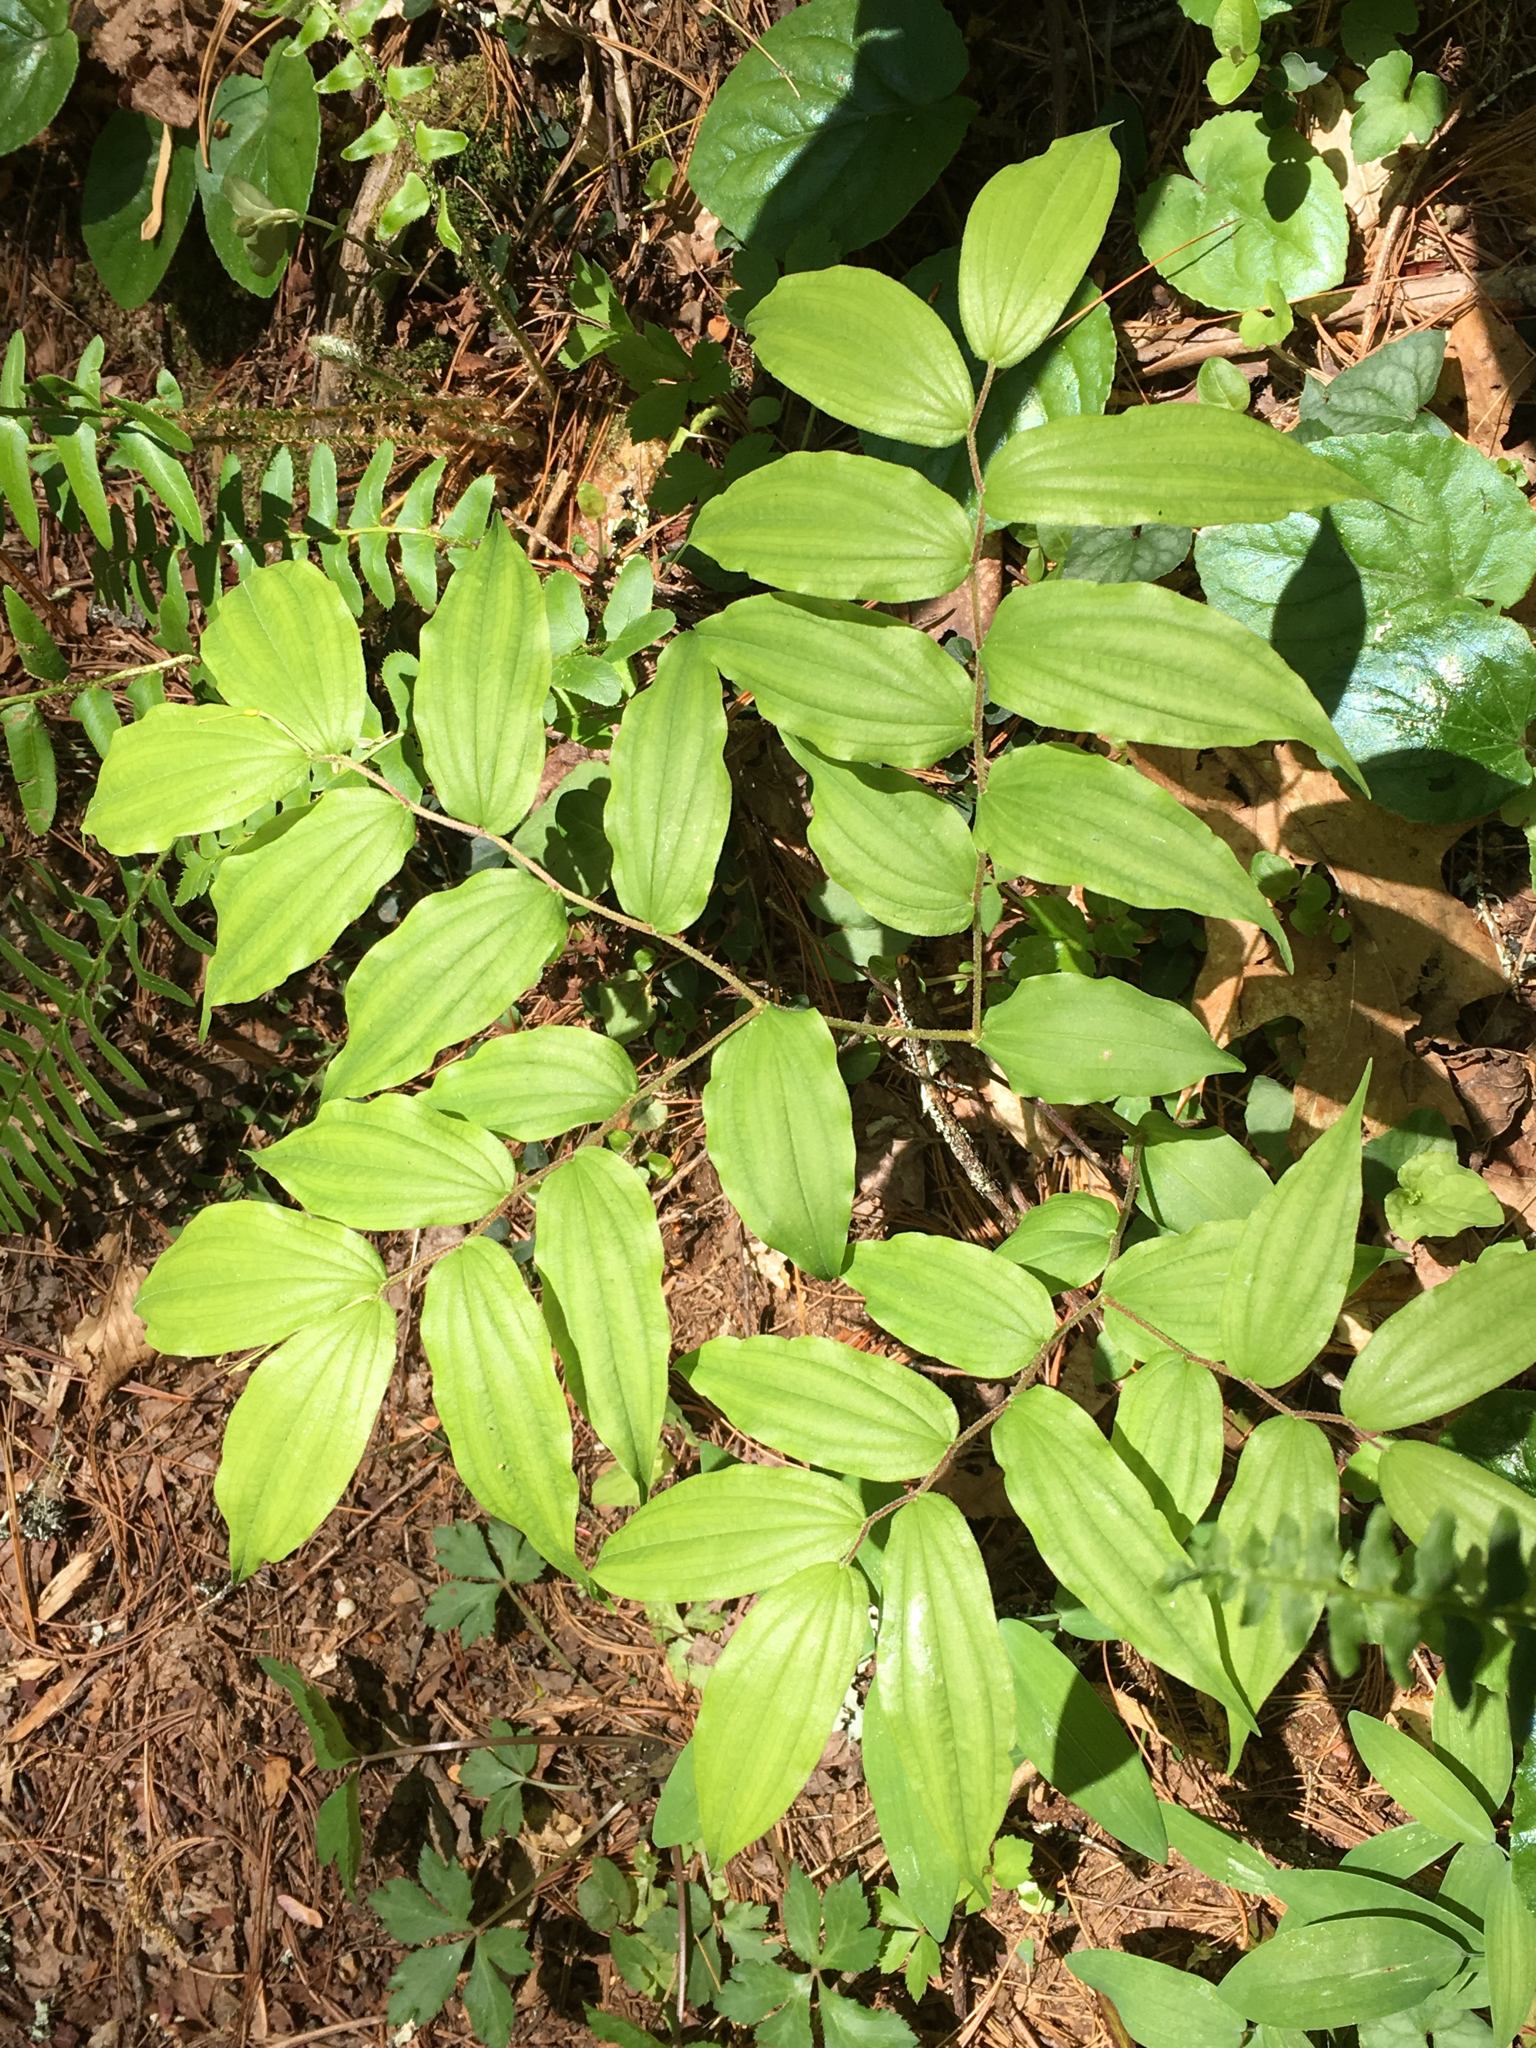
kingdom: Plantae
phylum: Tracheophyta
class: Liliopsida
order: Liliales
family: Liliaceae
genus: Prosartes
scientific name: Prosartes lanuginosa
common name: Hairy mandarin
